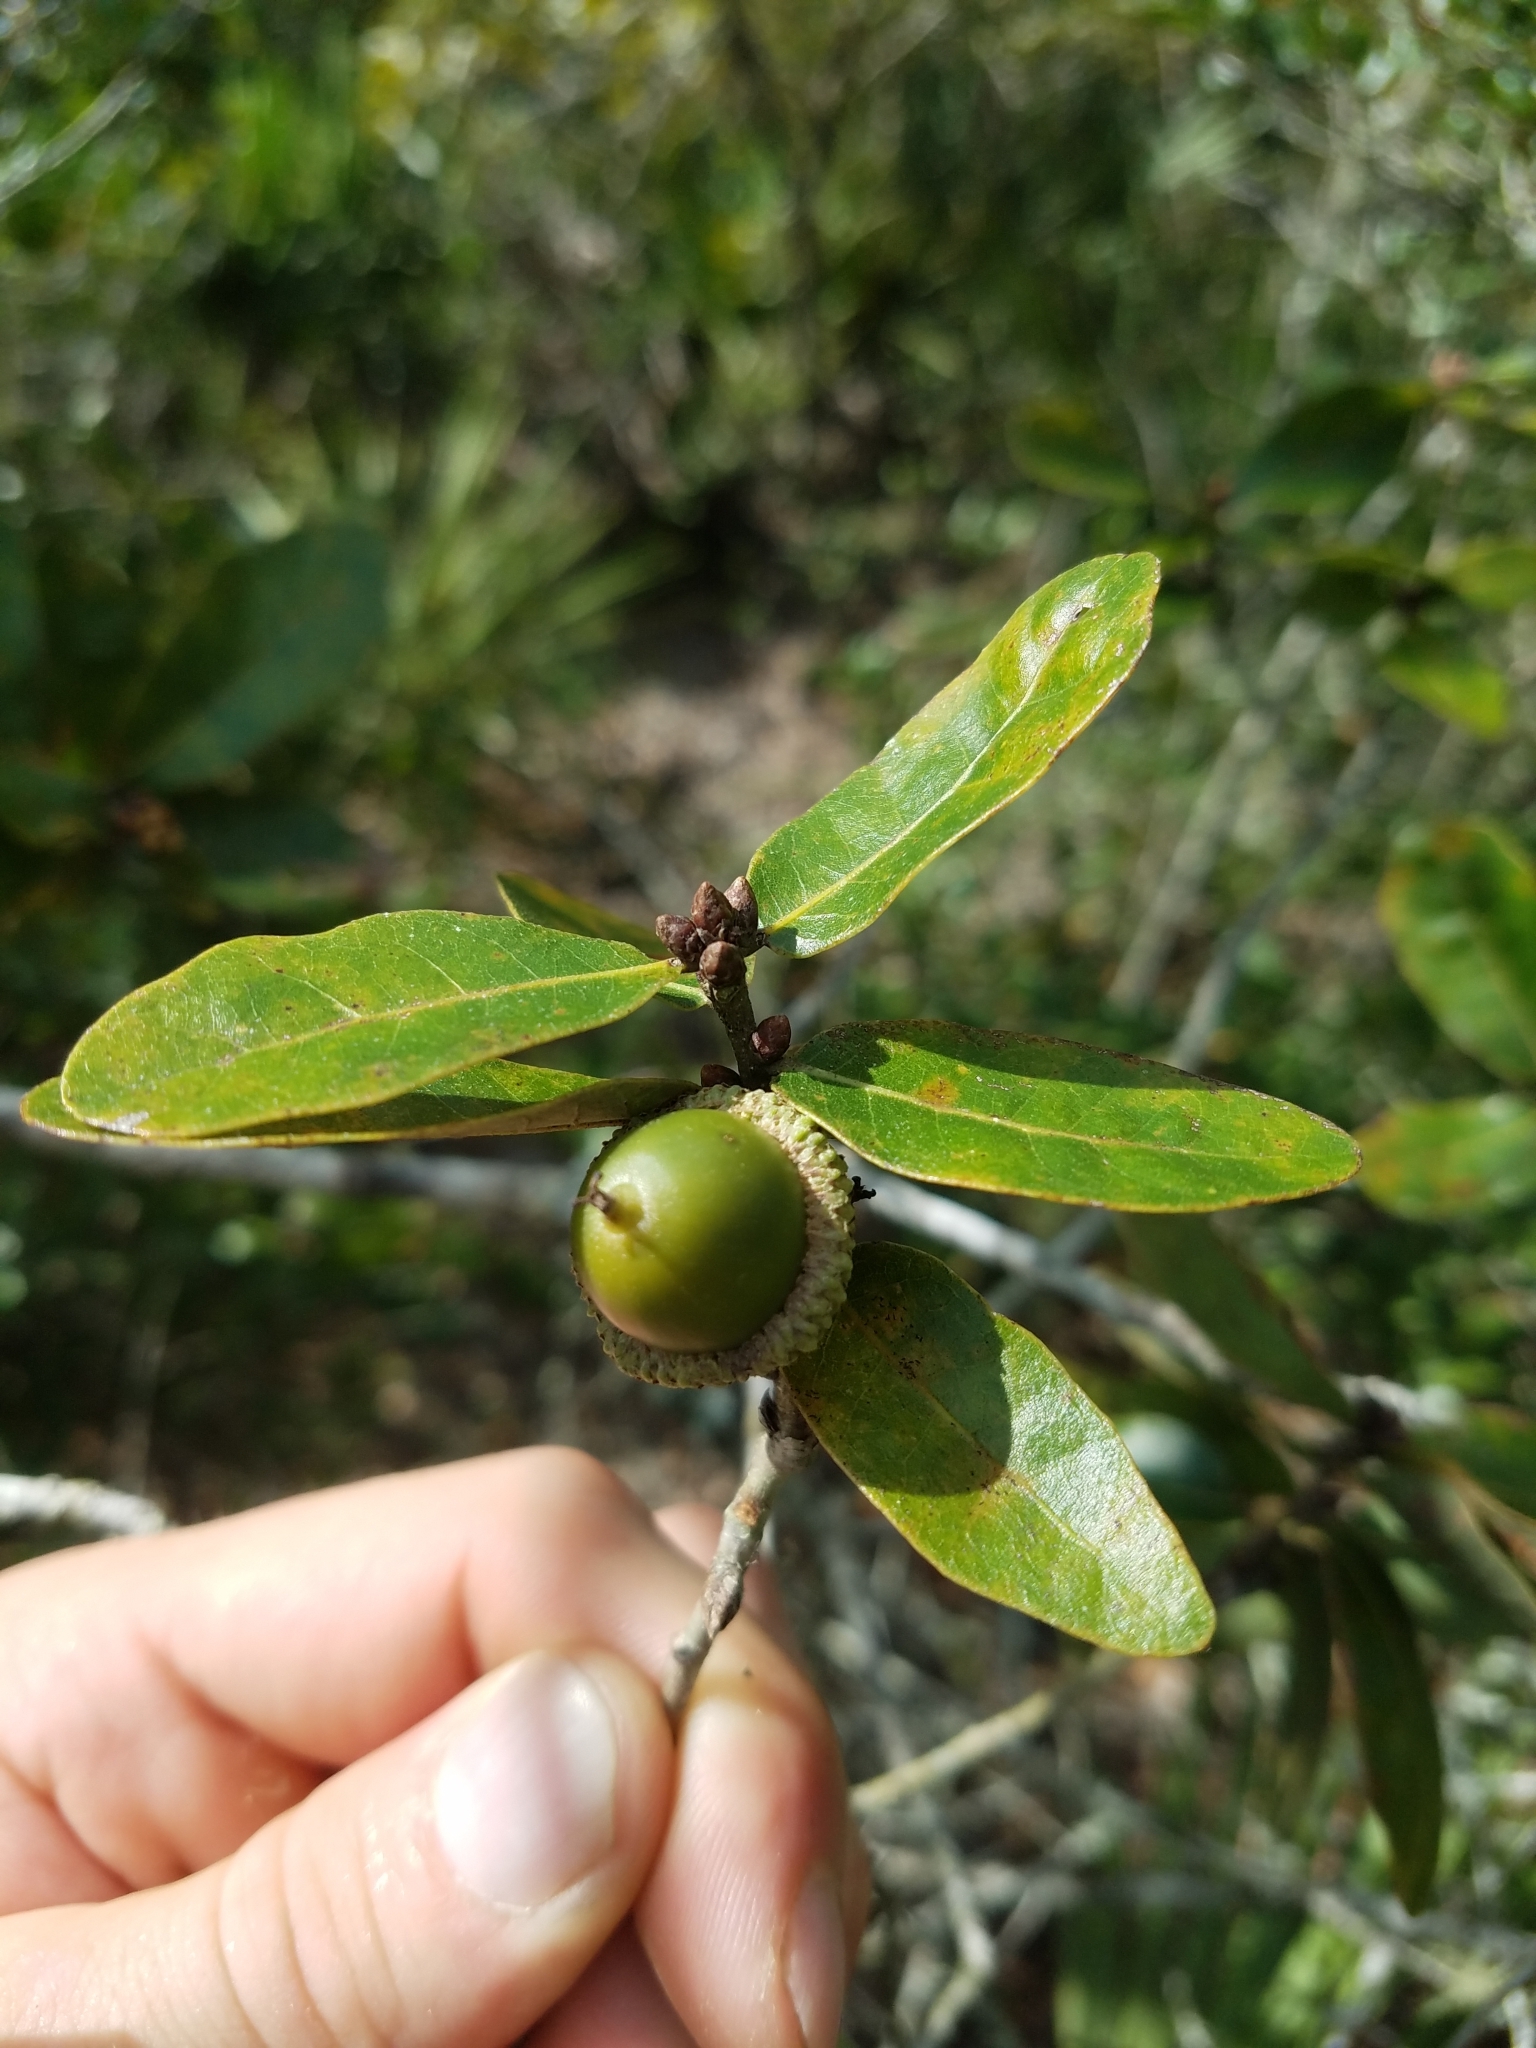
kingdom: Plantae
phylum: Tracheophyta
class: Magnoliopsida
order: Fagales
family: Fagaceae
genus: Quercus
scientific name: Quercus chapmanii
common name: Chapman oak
